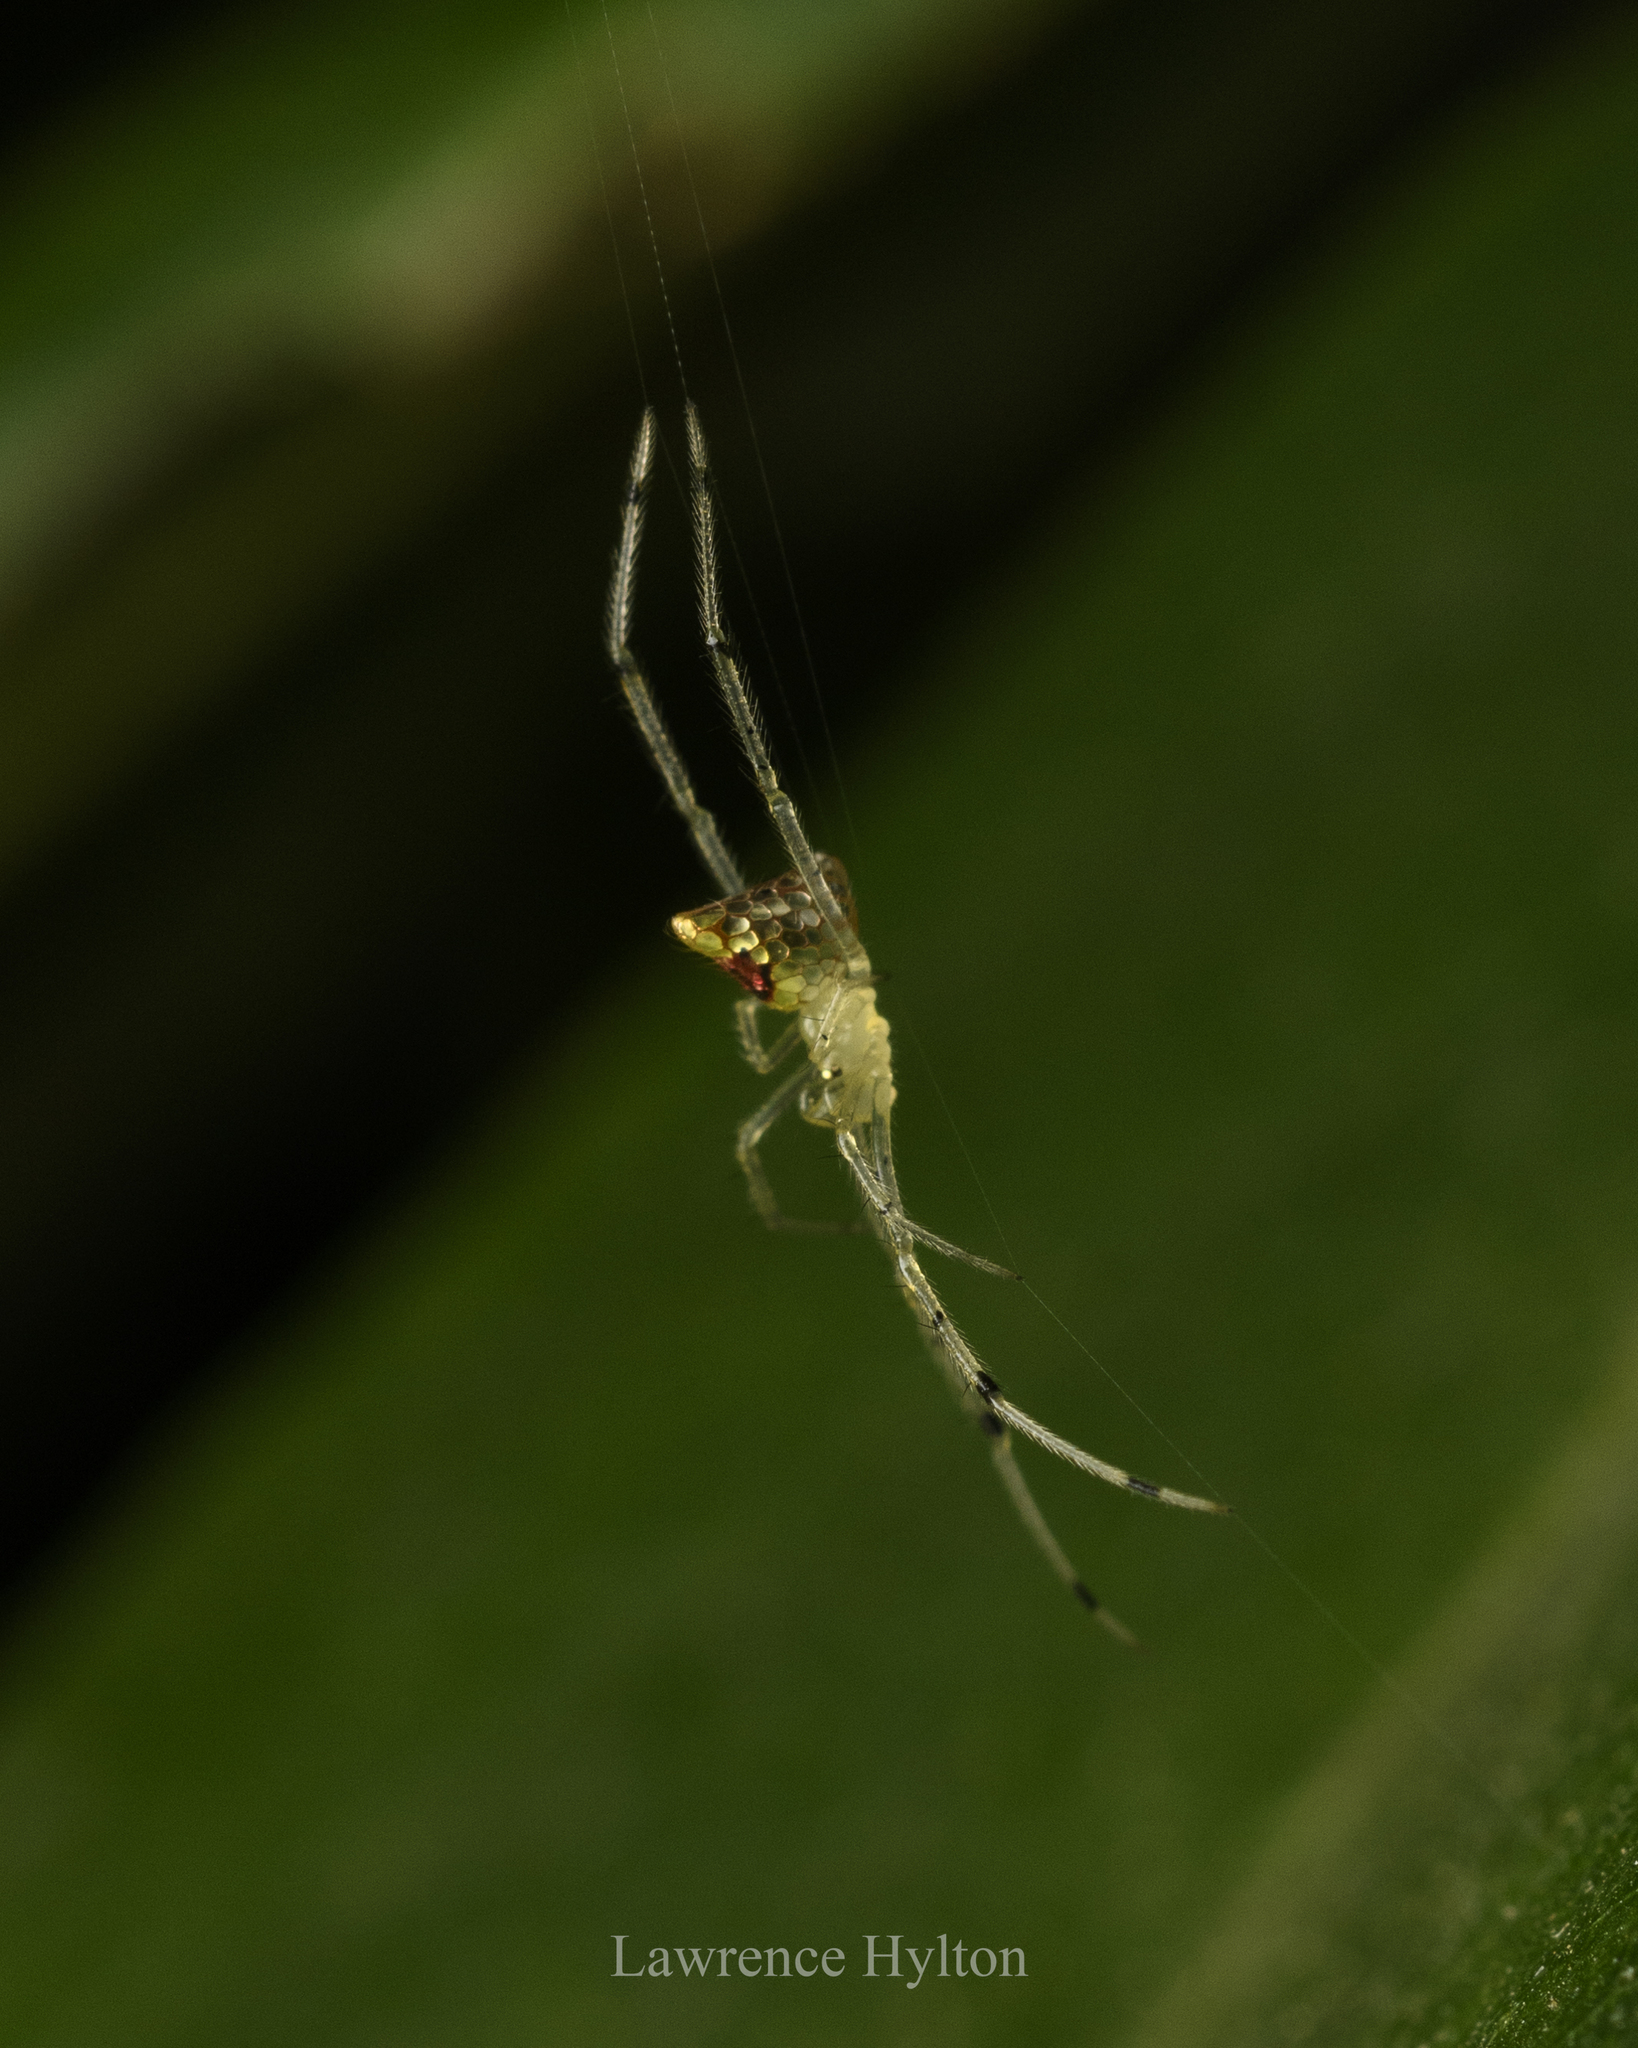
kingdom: Animalia
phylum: Arthropoda
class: Arachnida
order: Araneae
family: Theridiidae
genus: Thwaitesia
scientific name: Thwaitesia margaritifera
